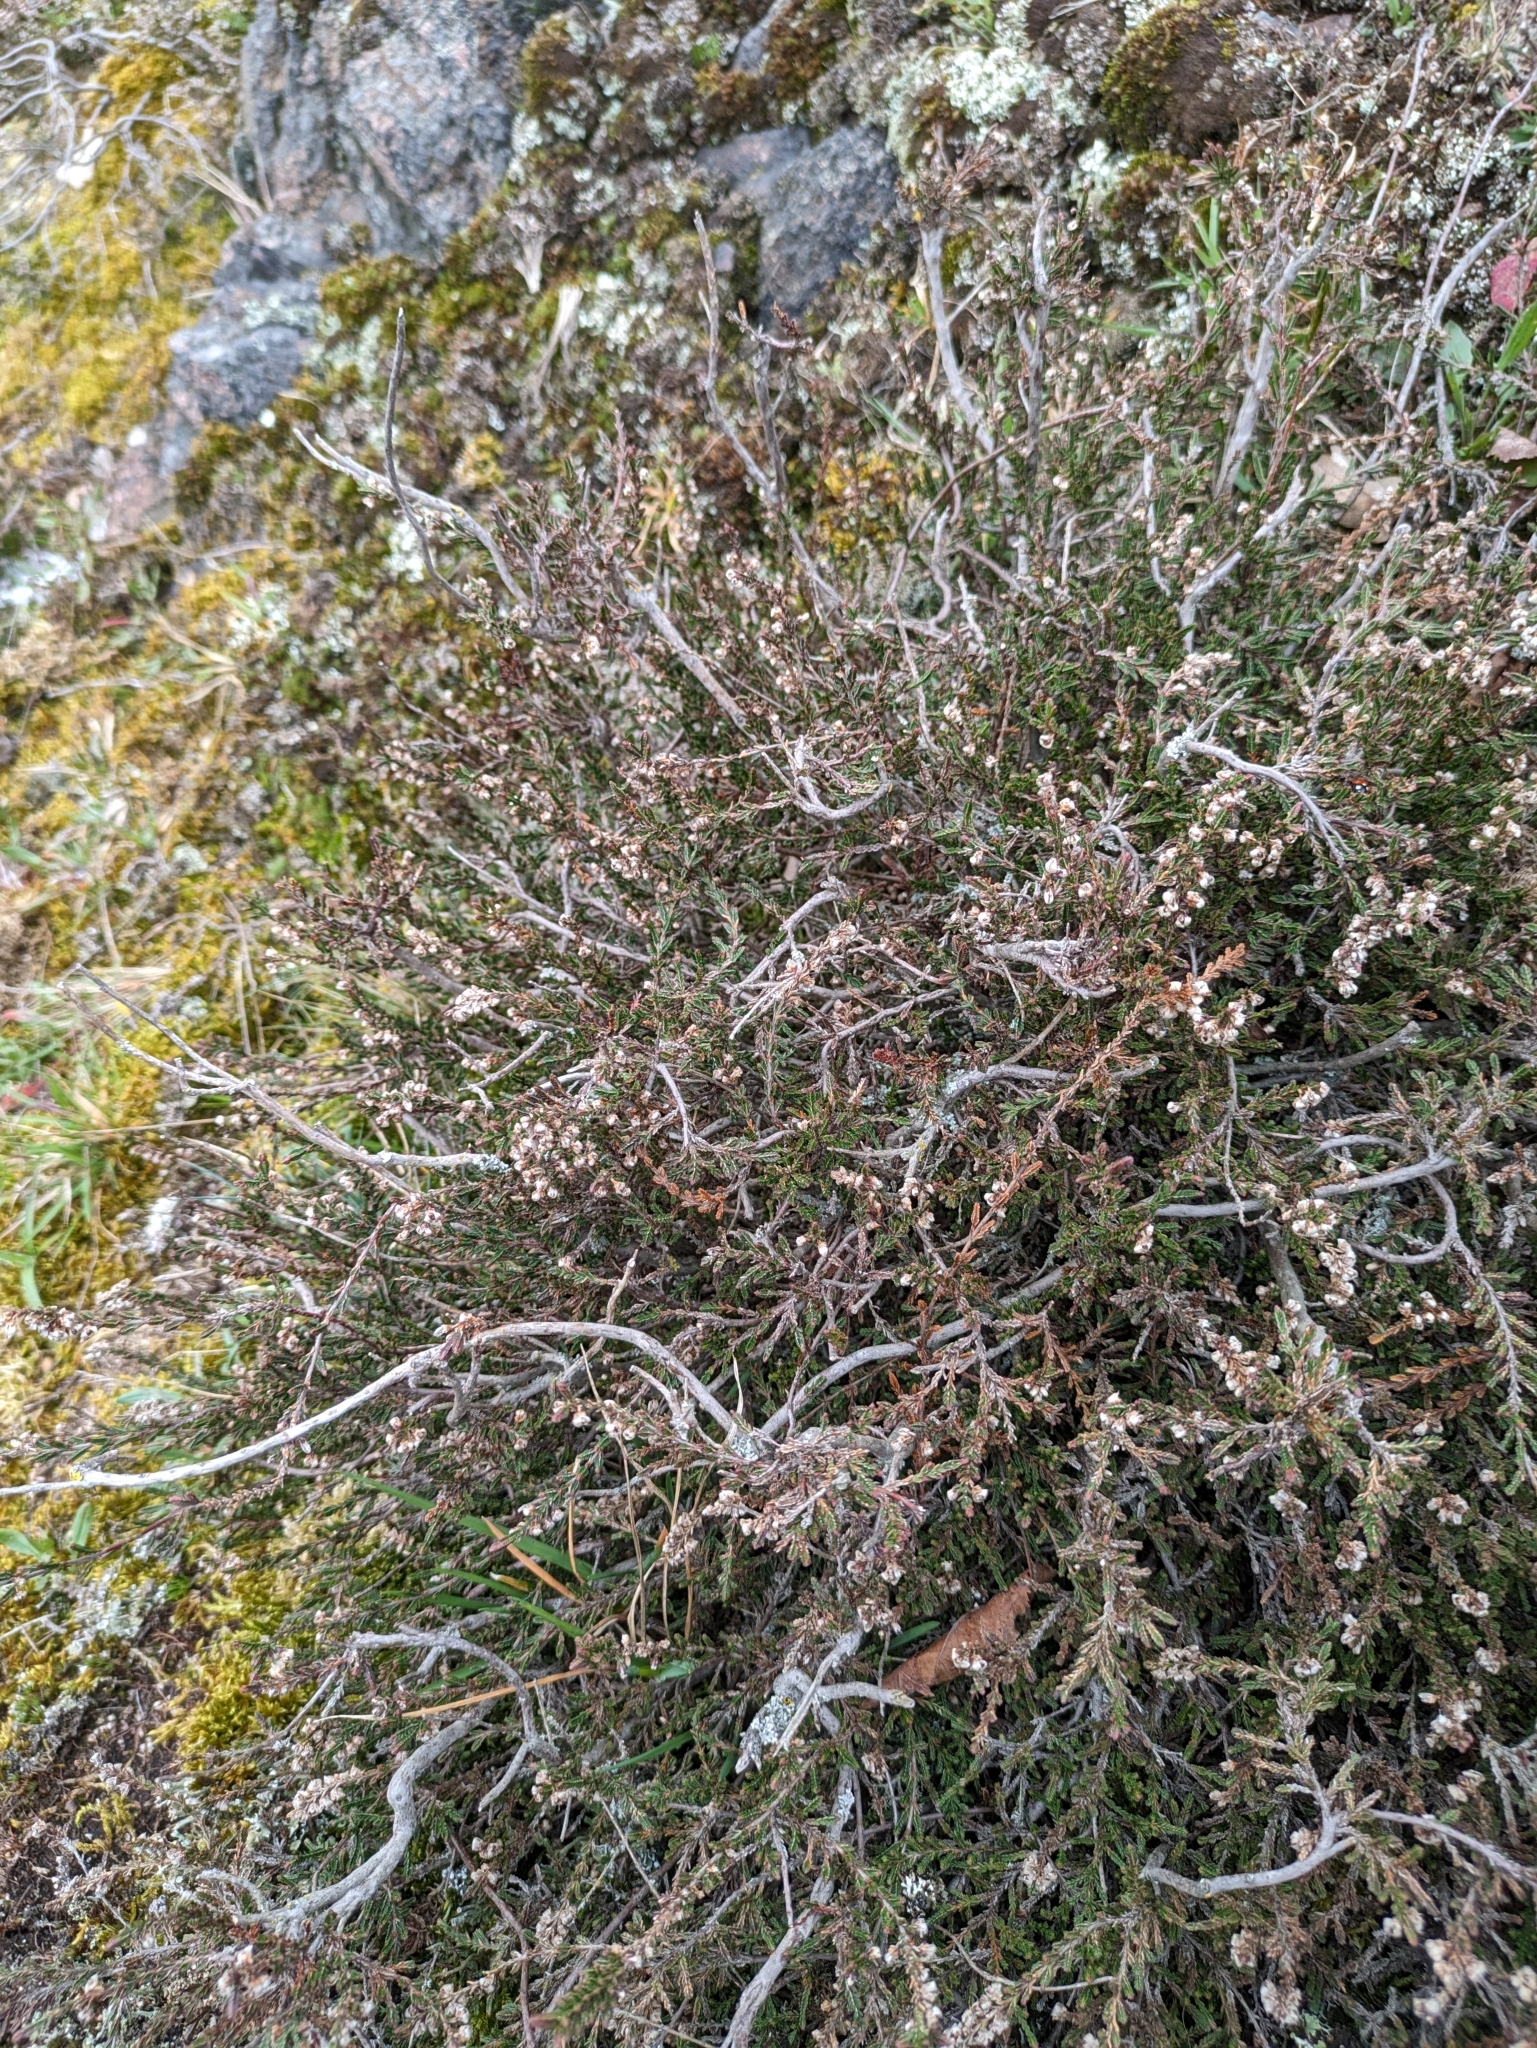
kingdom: Plantae
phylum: Tracheophyta
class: Magnoliopsida
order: Ericales
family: Ericaceae
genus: Calluna
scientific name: Calluna vulgaris
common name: Heather
